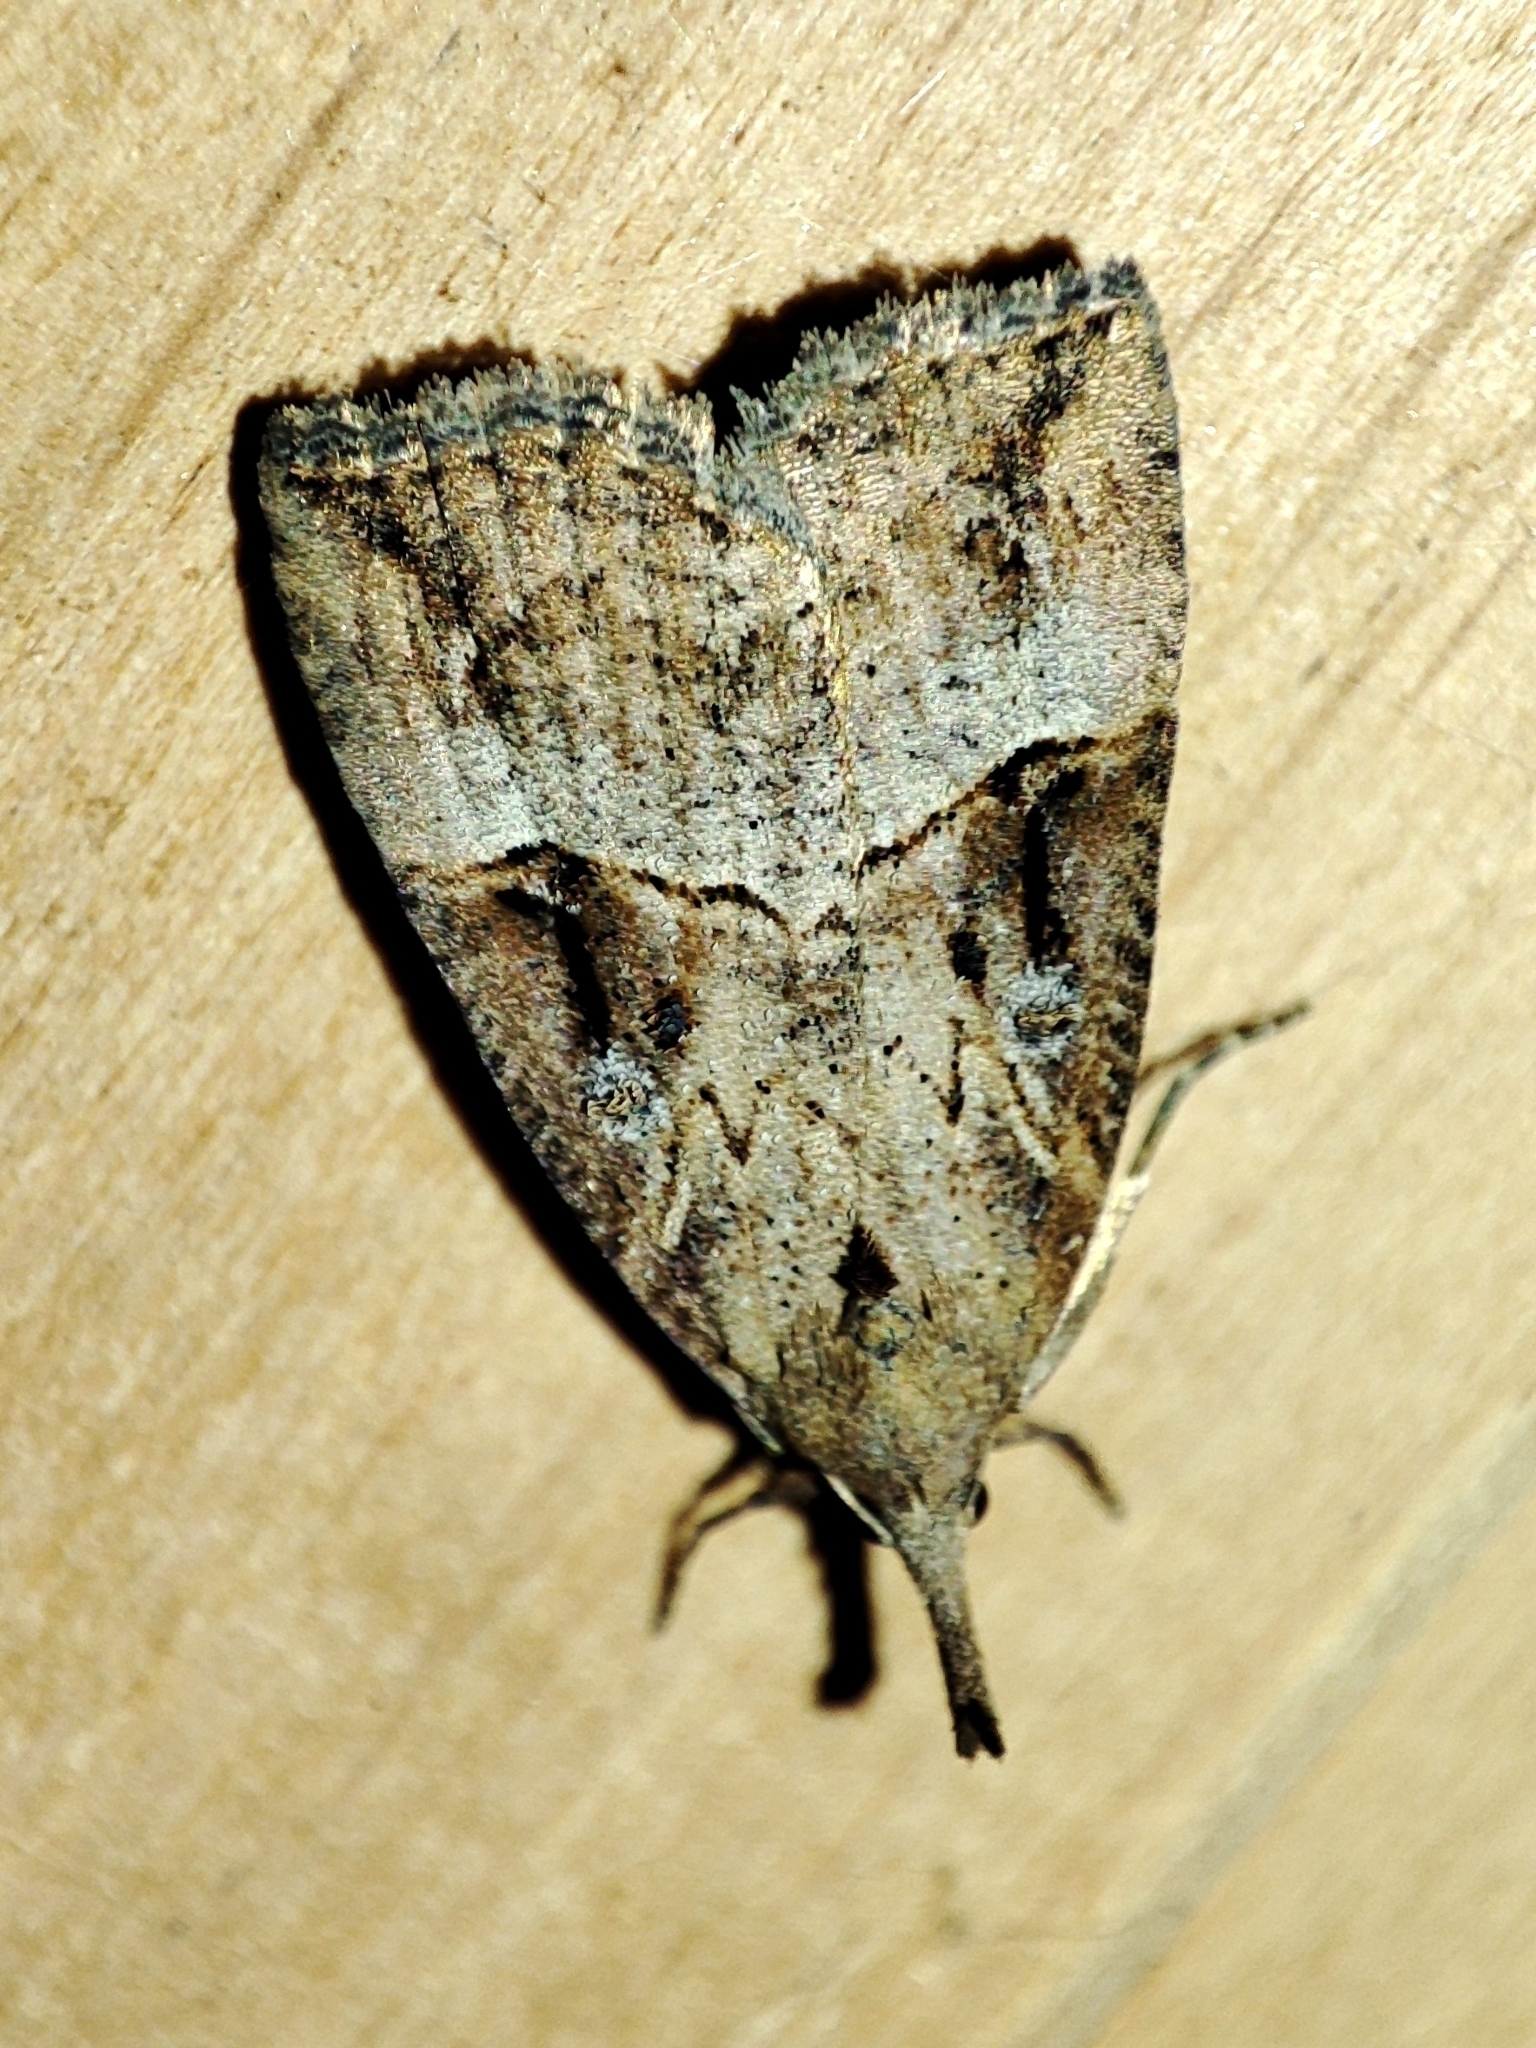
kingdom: Animalia
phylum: Arthropoda
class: Insecta
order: Lepidoptera
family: Erebidae
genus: Hypena
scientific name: Hypena rostralis
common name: Buttoned snout
